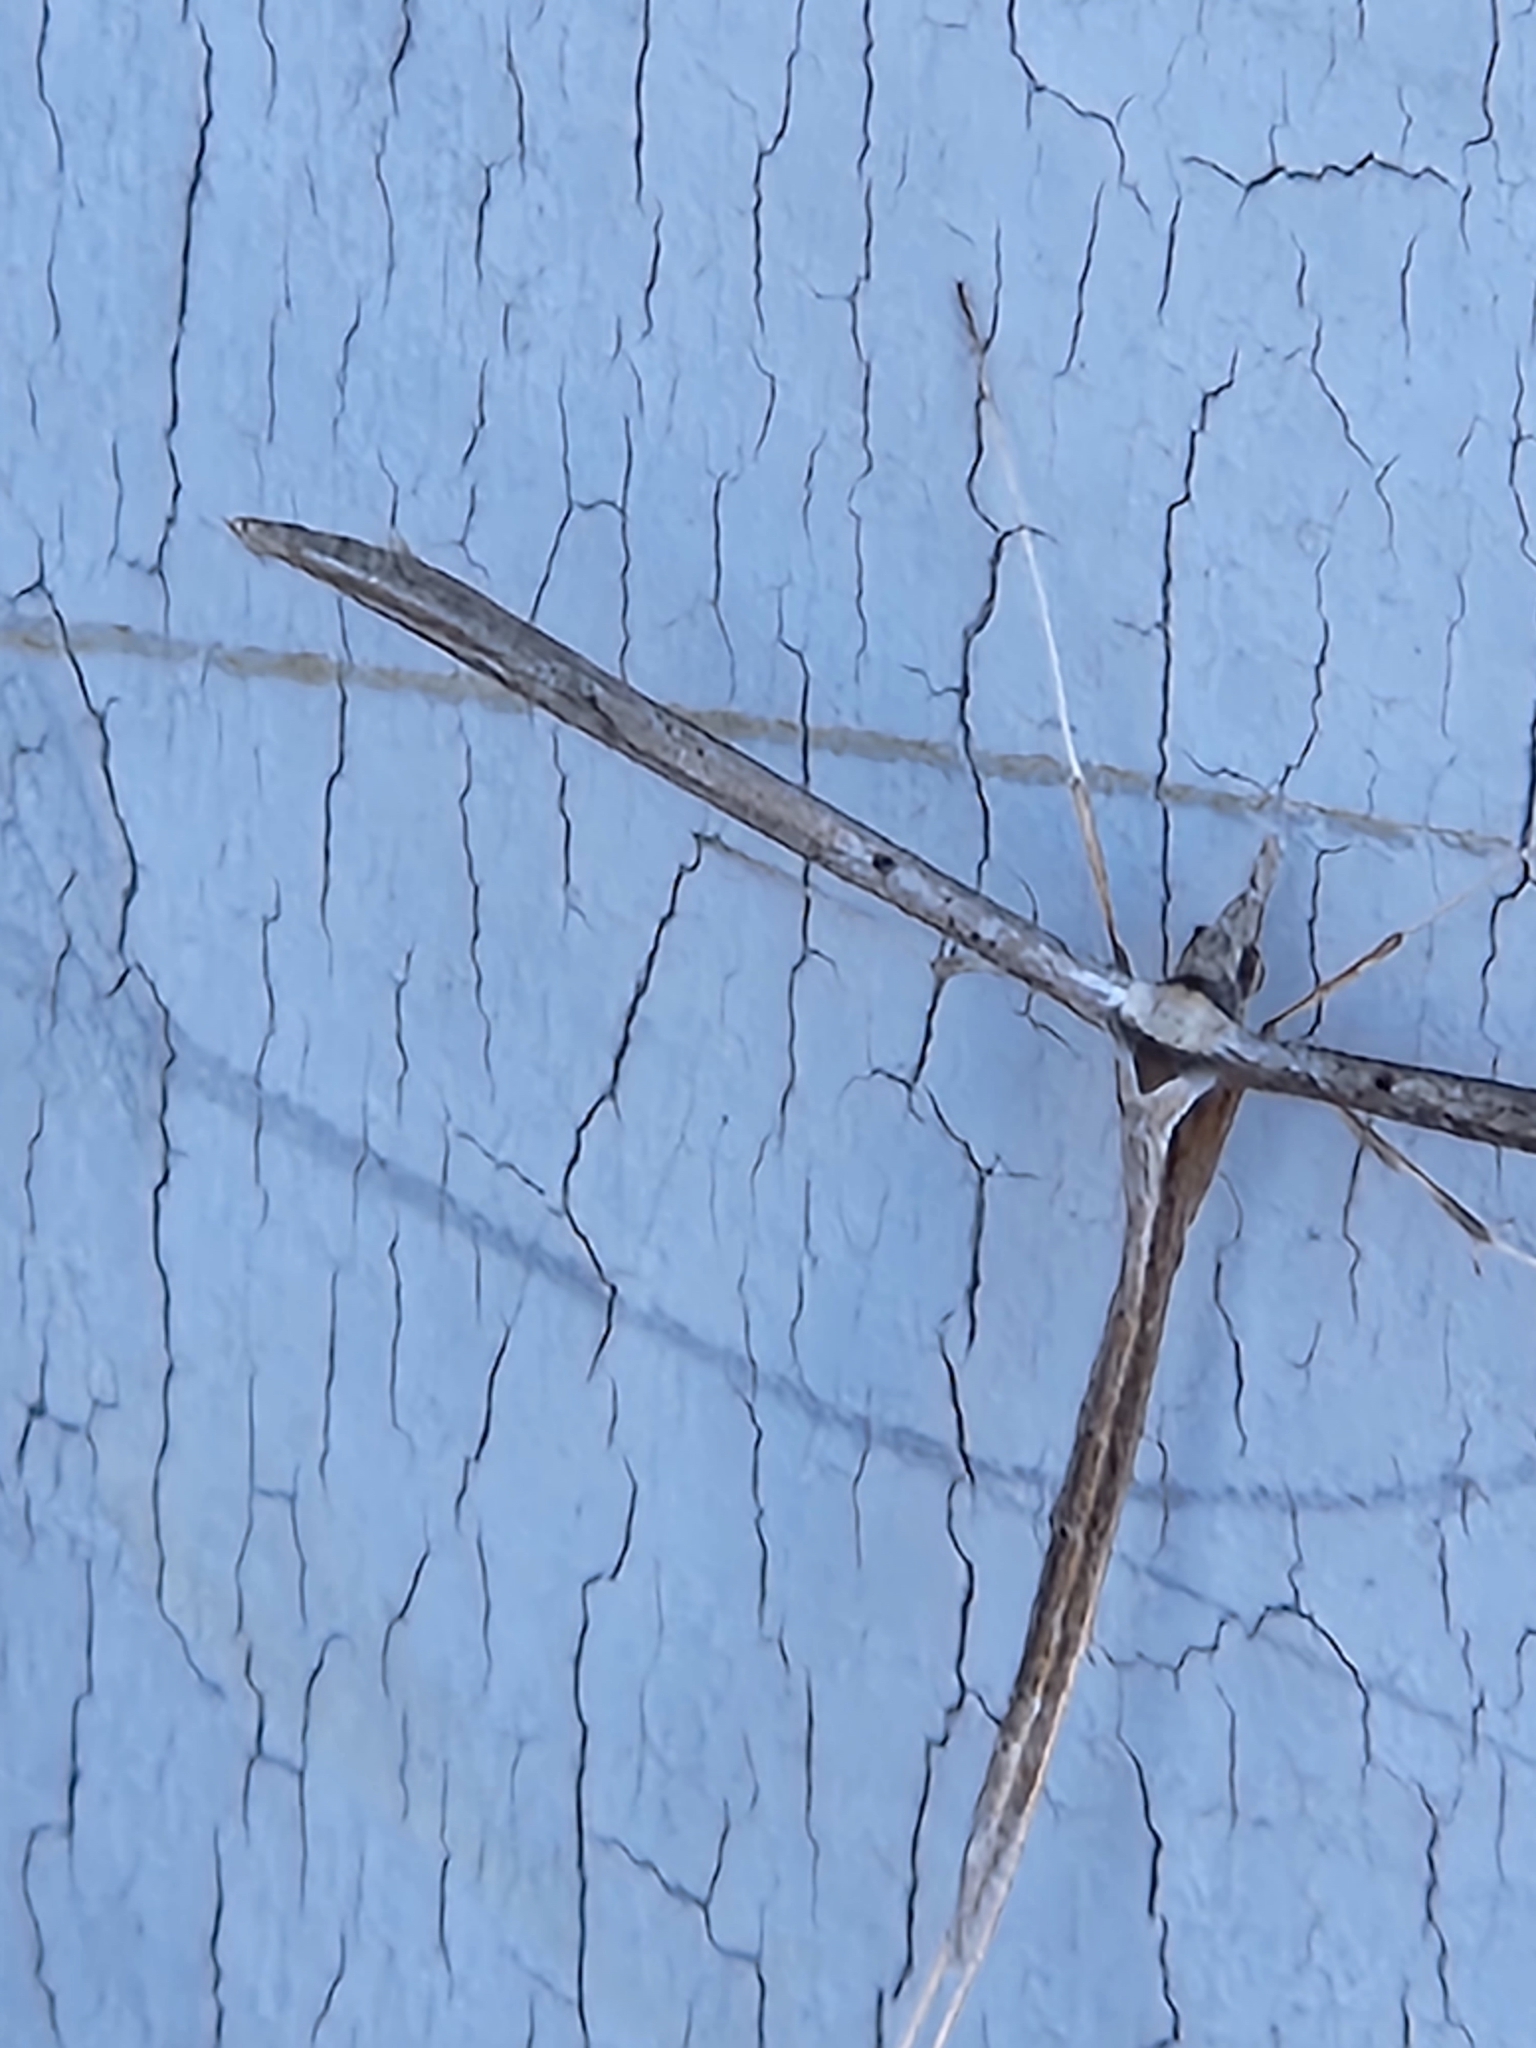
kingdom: Animalia
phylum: Arthropoda
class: Insecta
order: Lepidoptera
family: Pterophoridae
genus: Hellinsia
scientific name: Hellinsia longifrons
